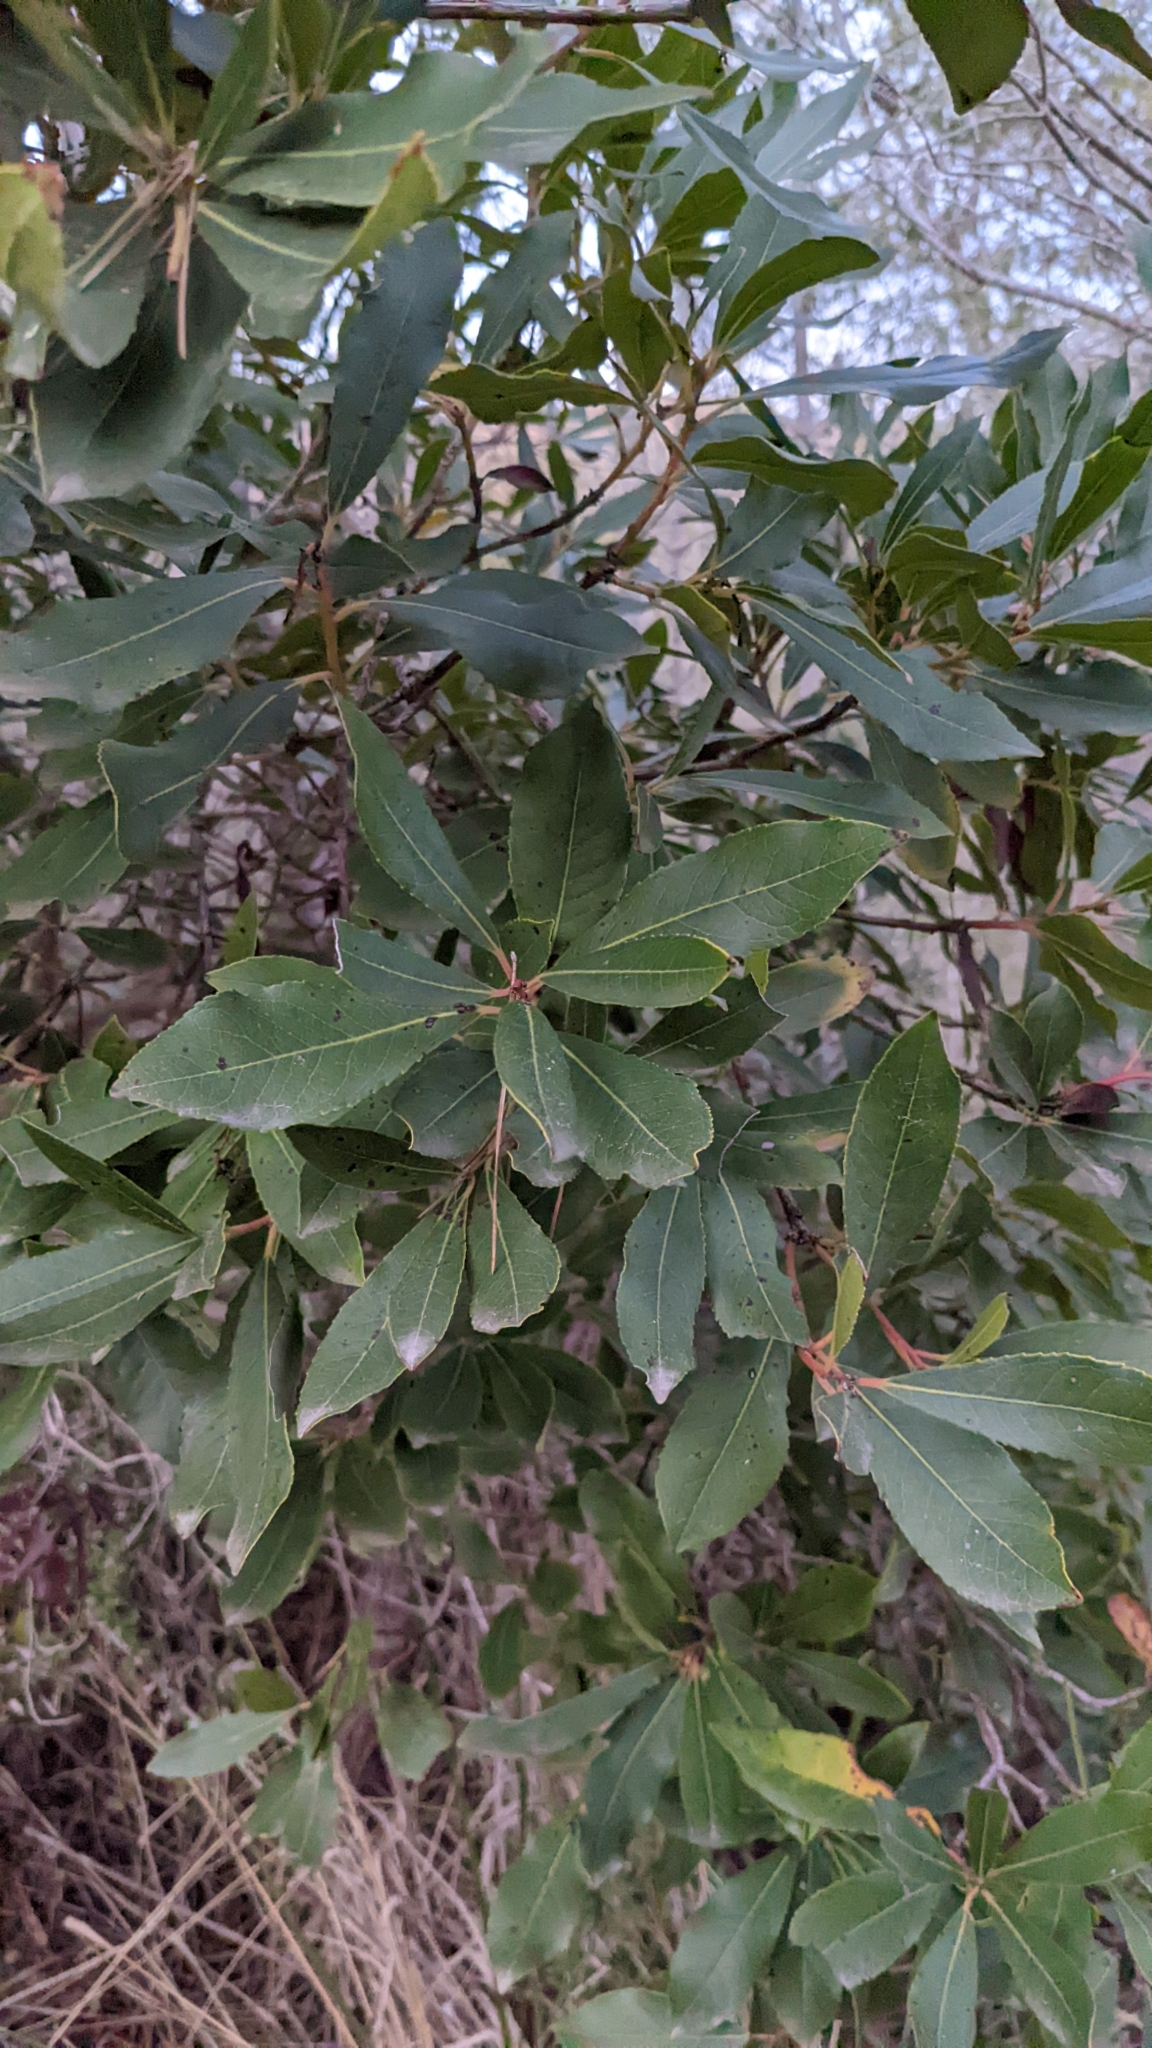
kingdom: Plantae
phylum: Tracheophyta
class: Magnoliopsida
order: Ericales
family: Ericaceae
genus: Arbutus
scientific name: Arbutus unedo
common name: Strawberry-tree
